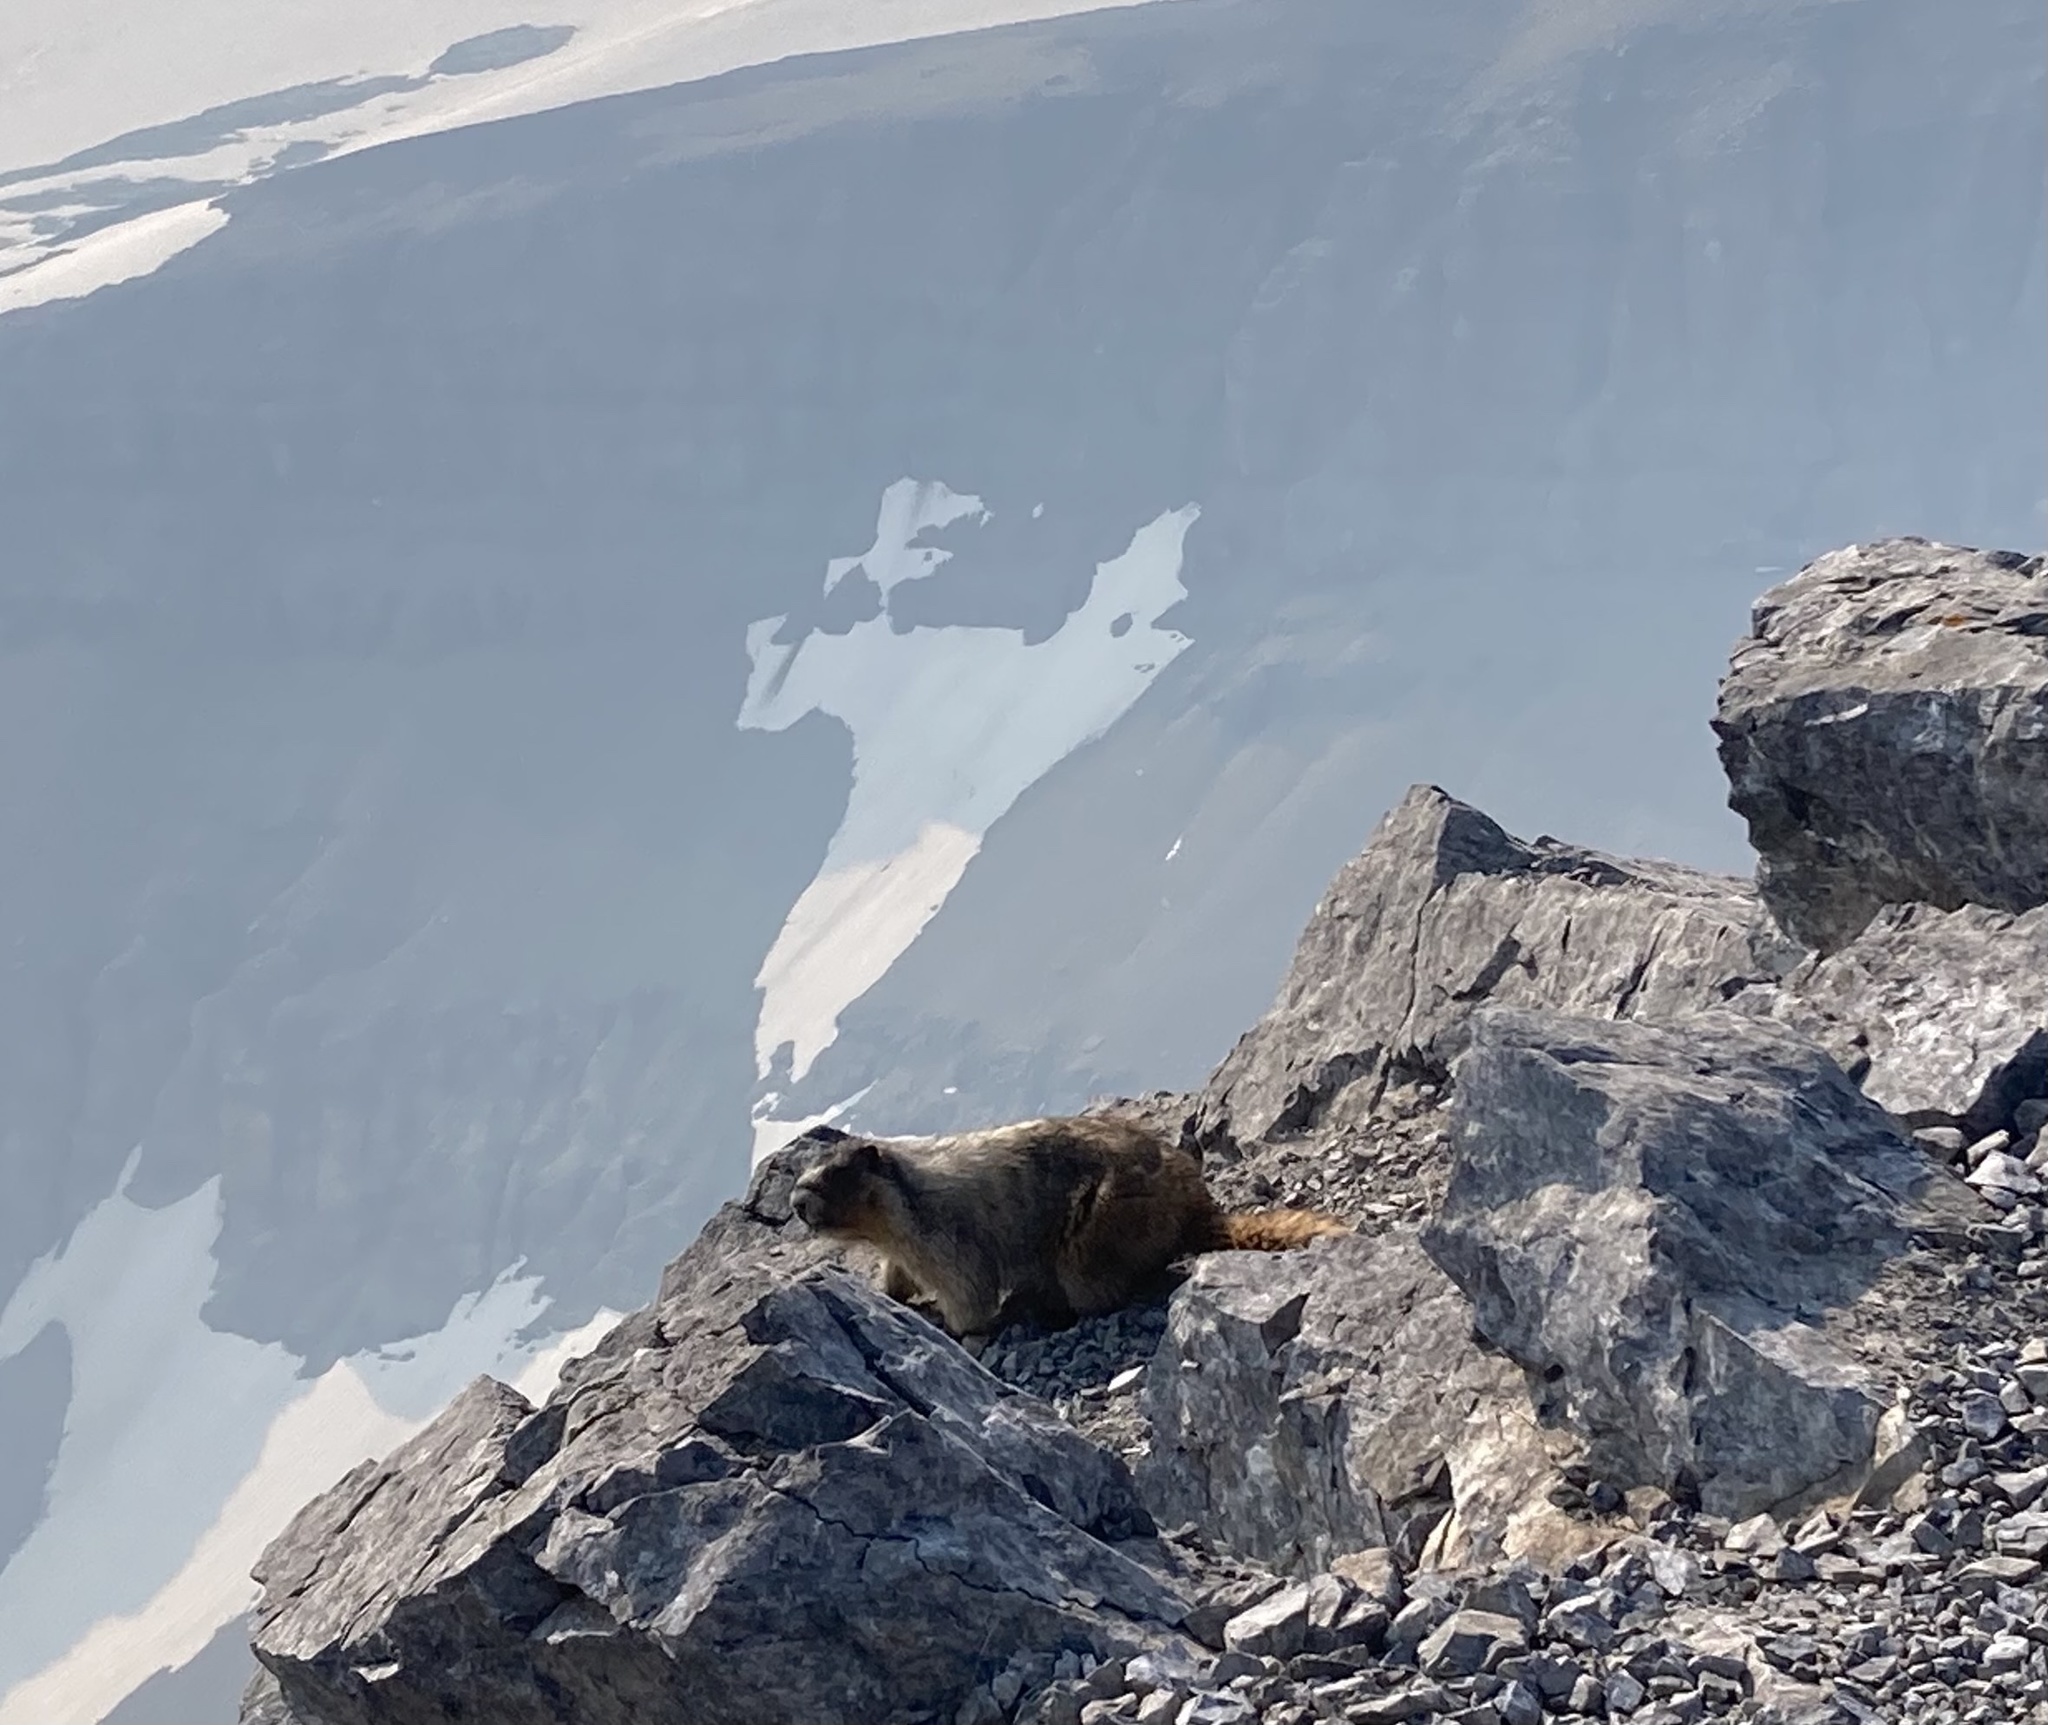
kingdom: Animalia
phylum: Chordata
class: Mammalia
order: Rodentia
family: Sciuridae
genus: Marmota
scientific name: Marmota caligata
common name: Hoary marmot
